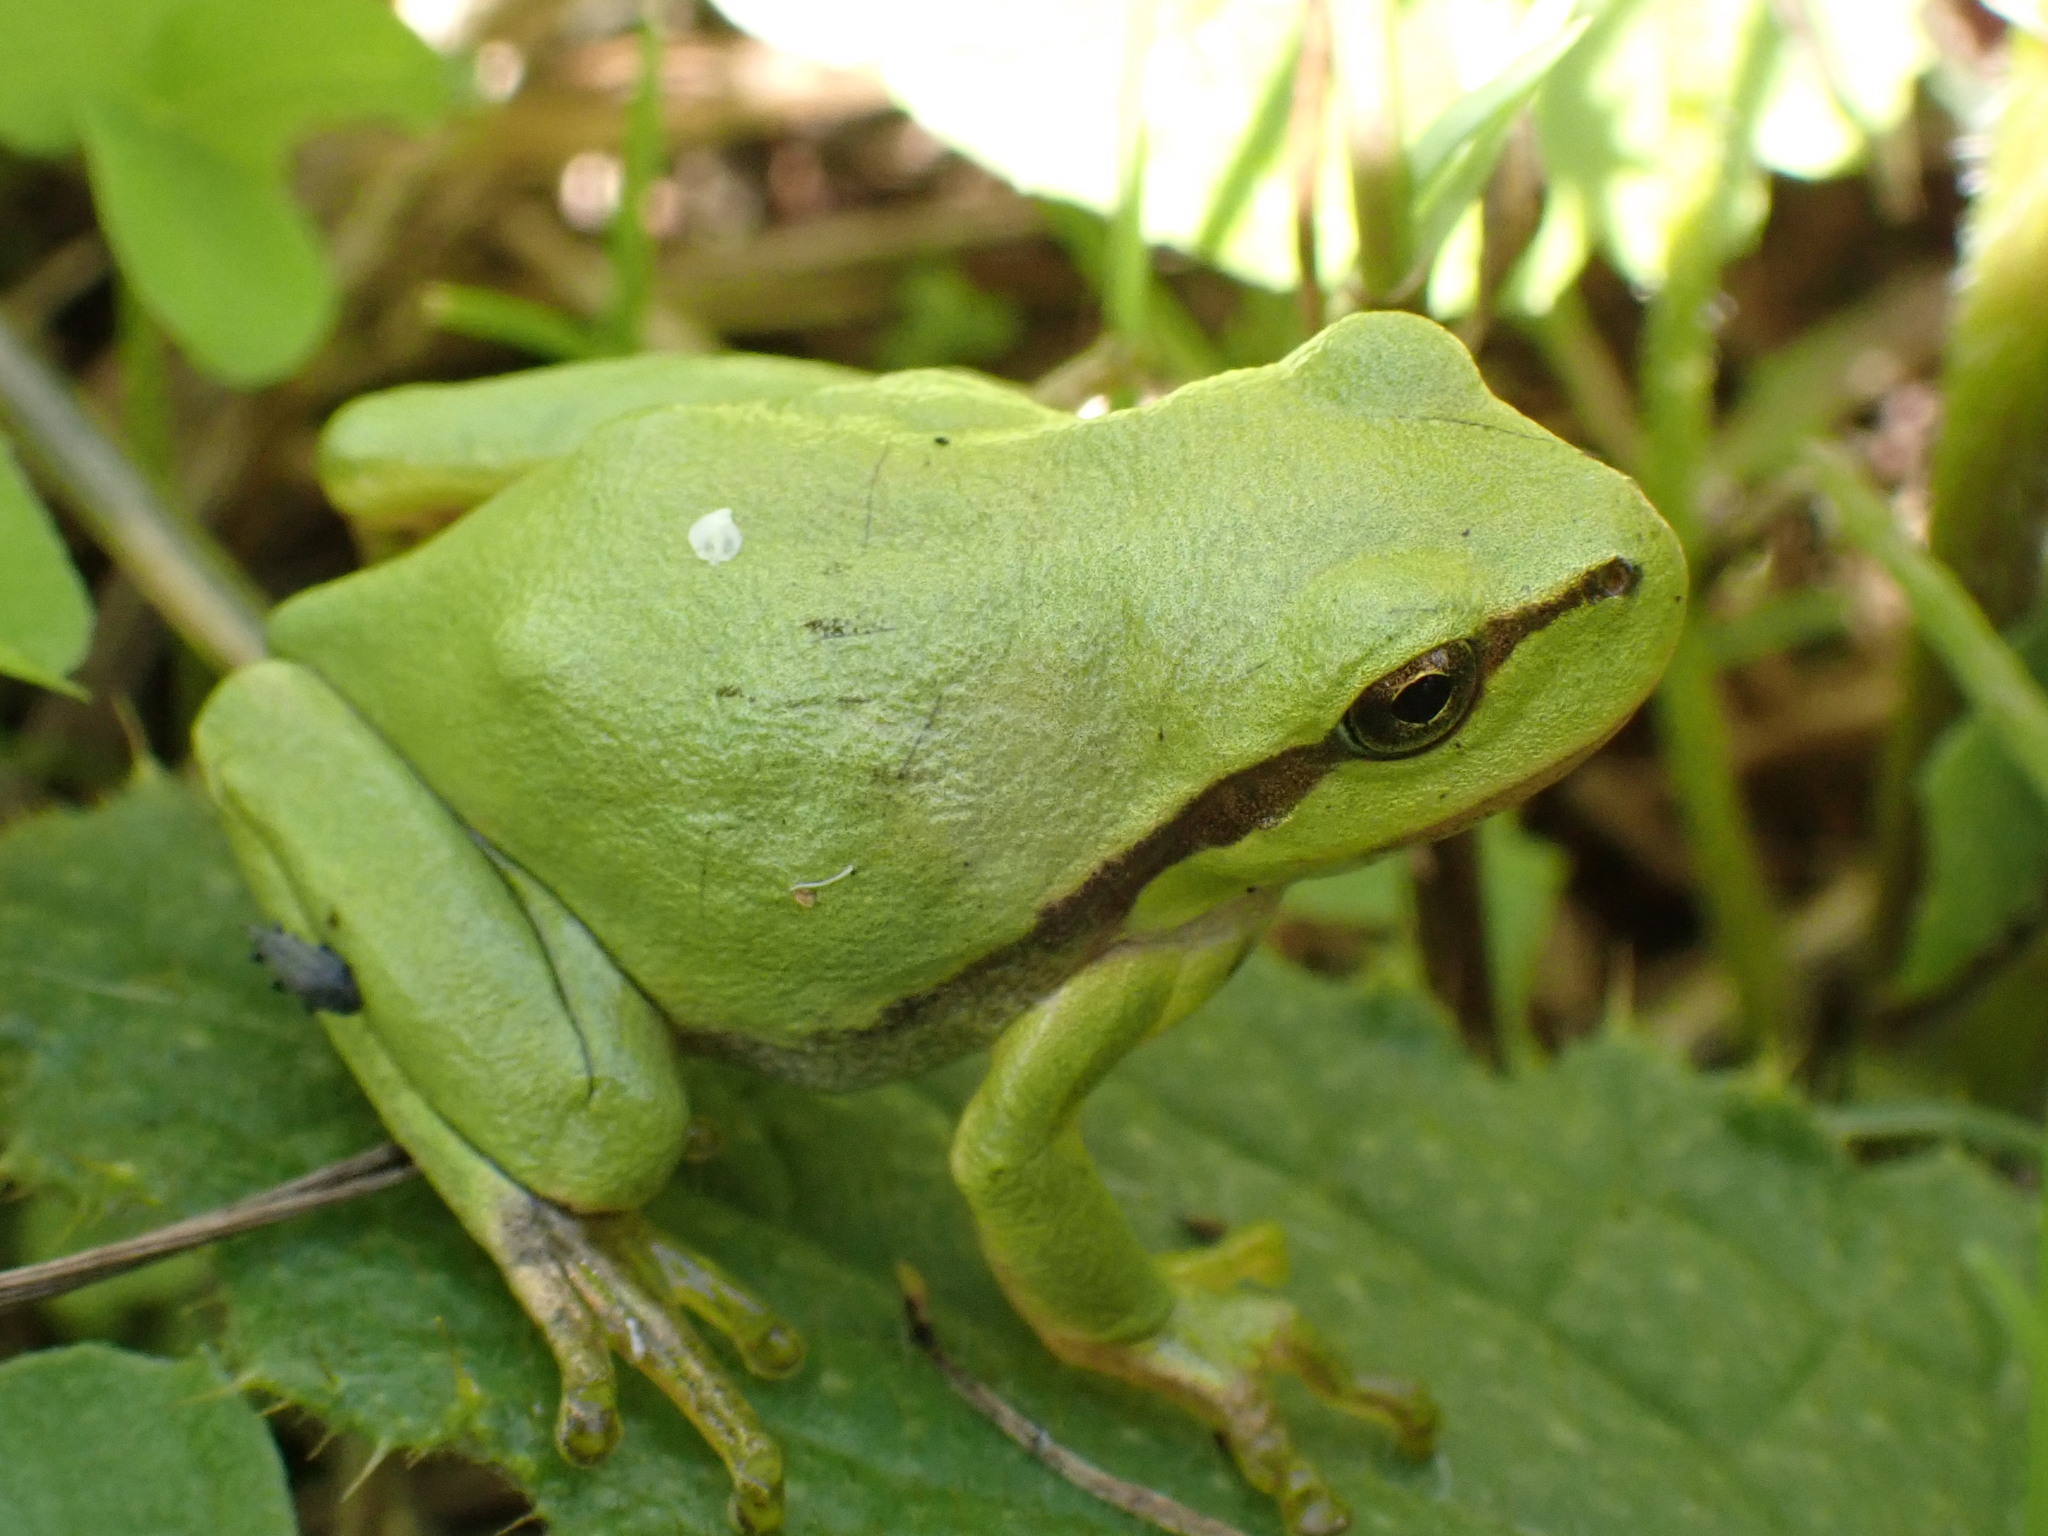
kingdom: Animalia
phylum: Chordata
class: Amphibia
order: Anura
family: Hylidae
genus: Hyla
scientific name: Hyla arborea
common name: Common tree frog
